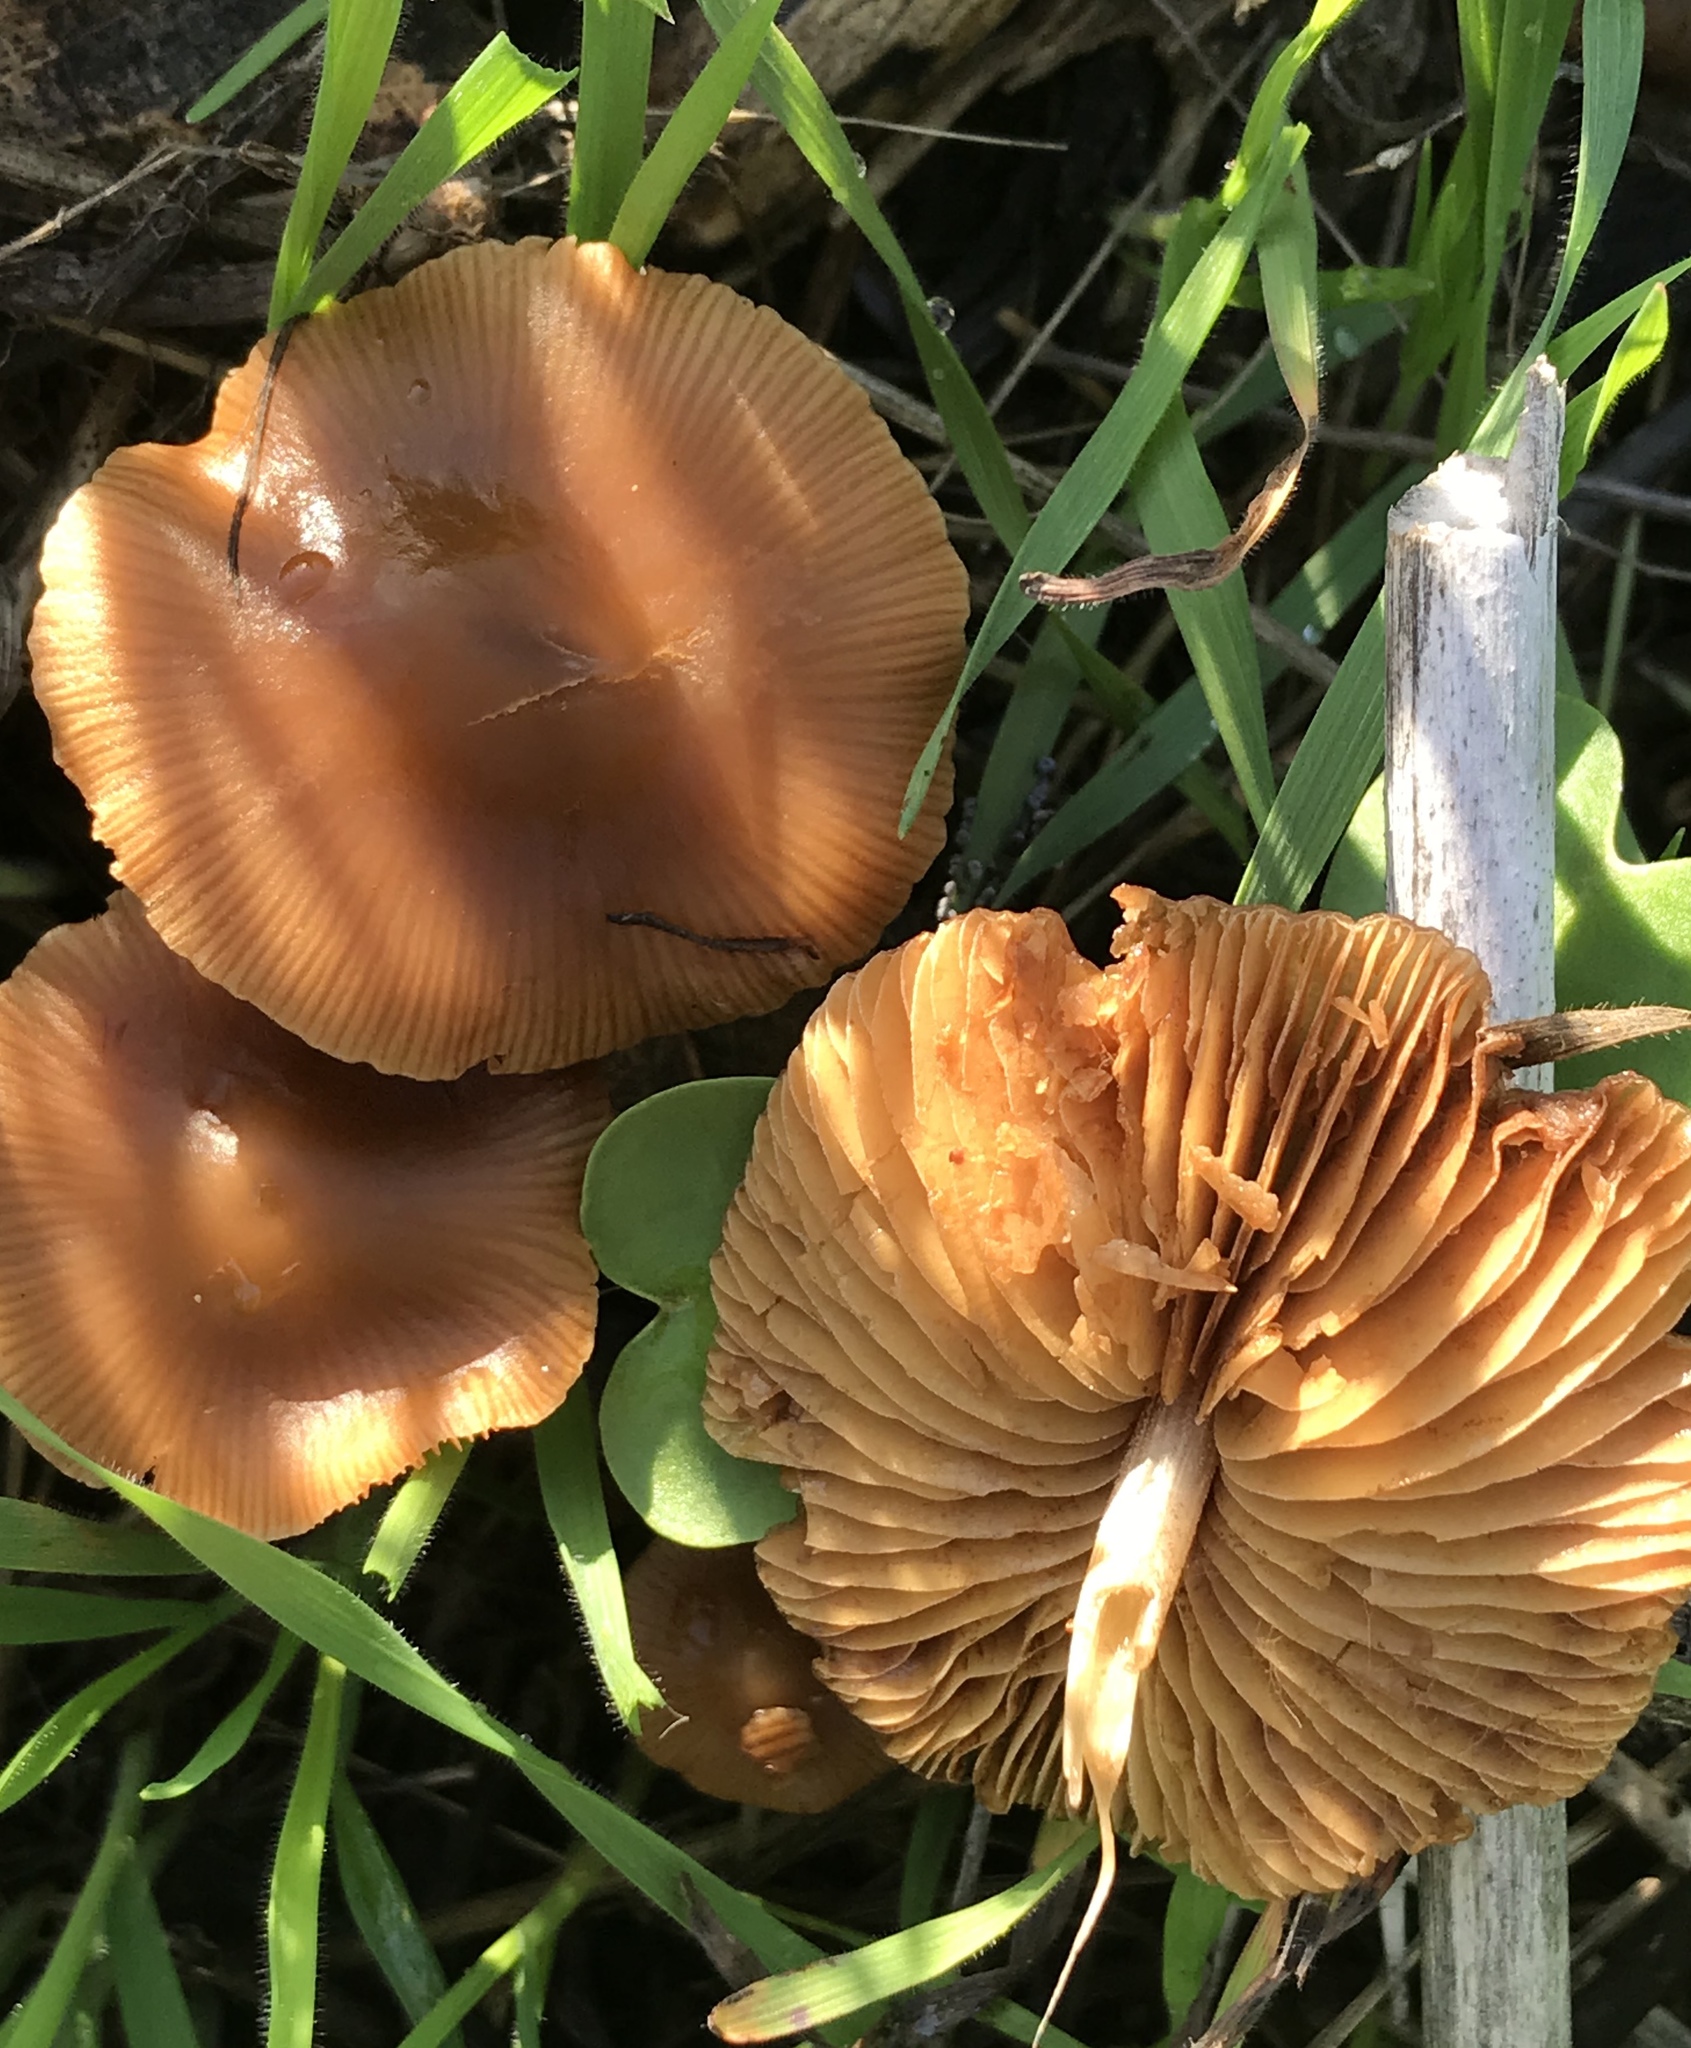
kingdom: Fungi
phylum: Basidiomycota
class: Agaricomycetes
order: Agaricales
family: Tubariaceae
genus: Tubaria
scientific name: Tubaria furfuracea
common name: Scurfy twiglet
